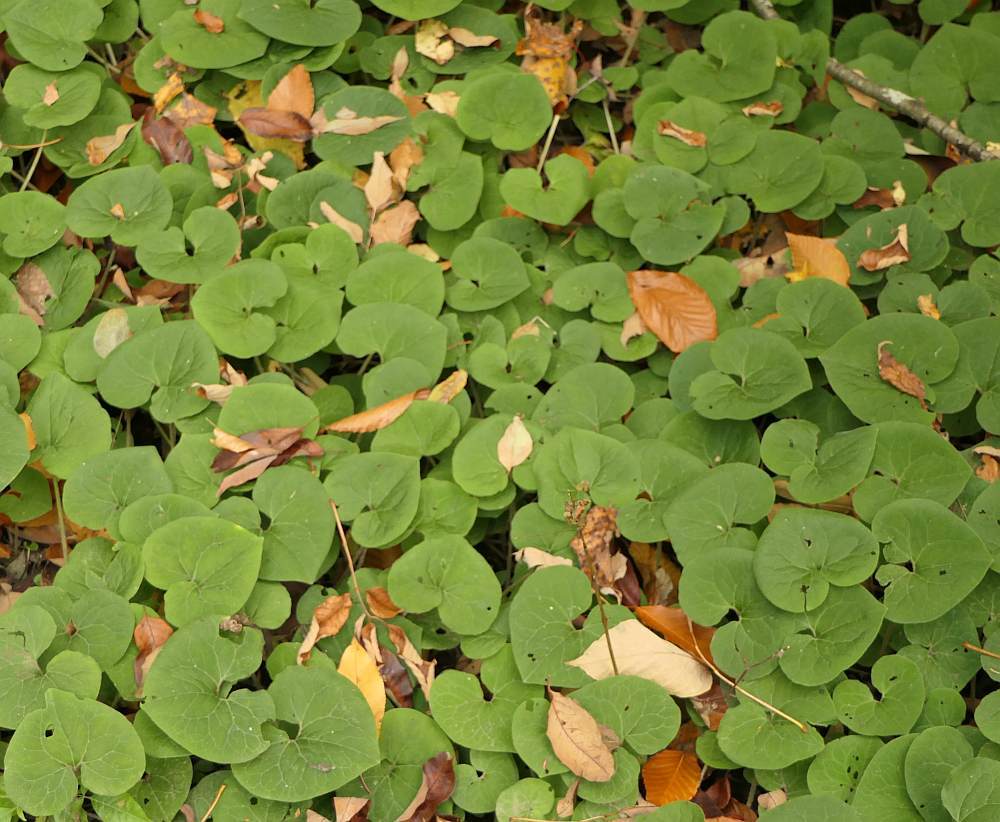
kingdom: Plantae
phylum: Tracheophyta
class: Magnoliopsida
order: Piperales
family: Aristolochiaceae
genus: Asarum
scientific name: Asarum canadense
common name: Wild ginger
